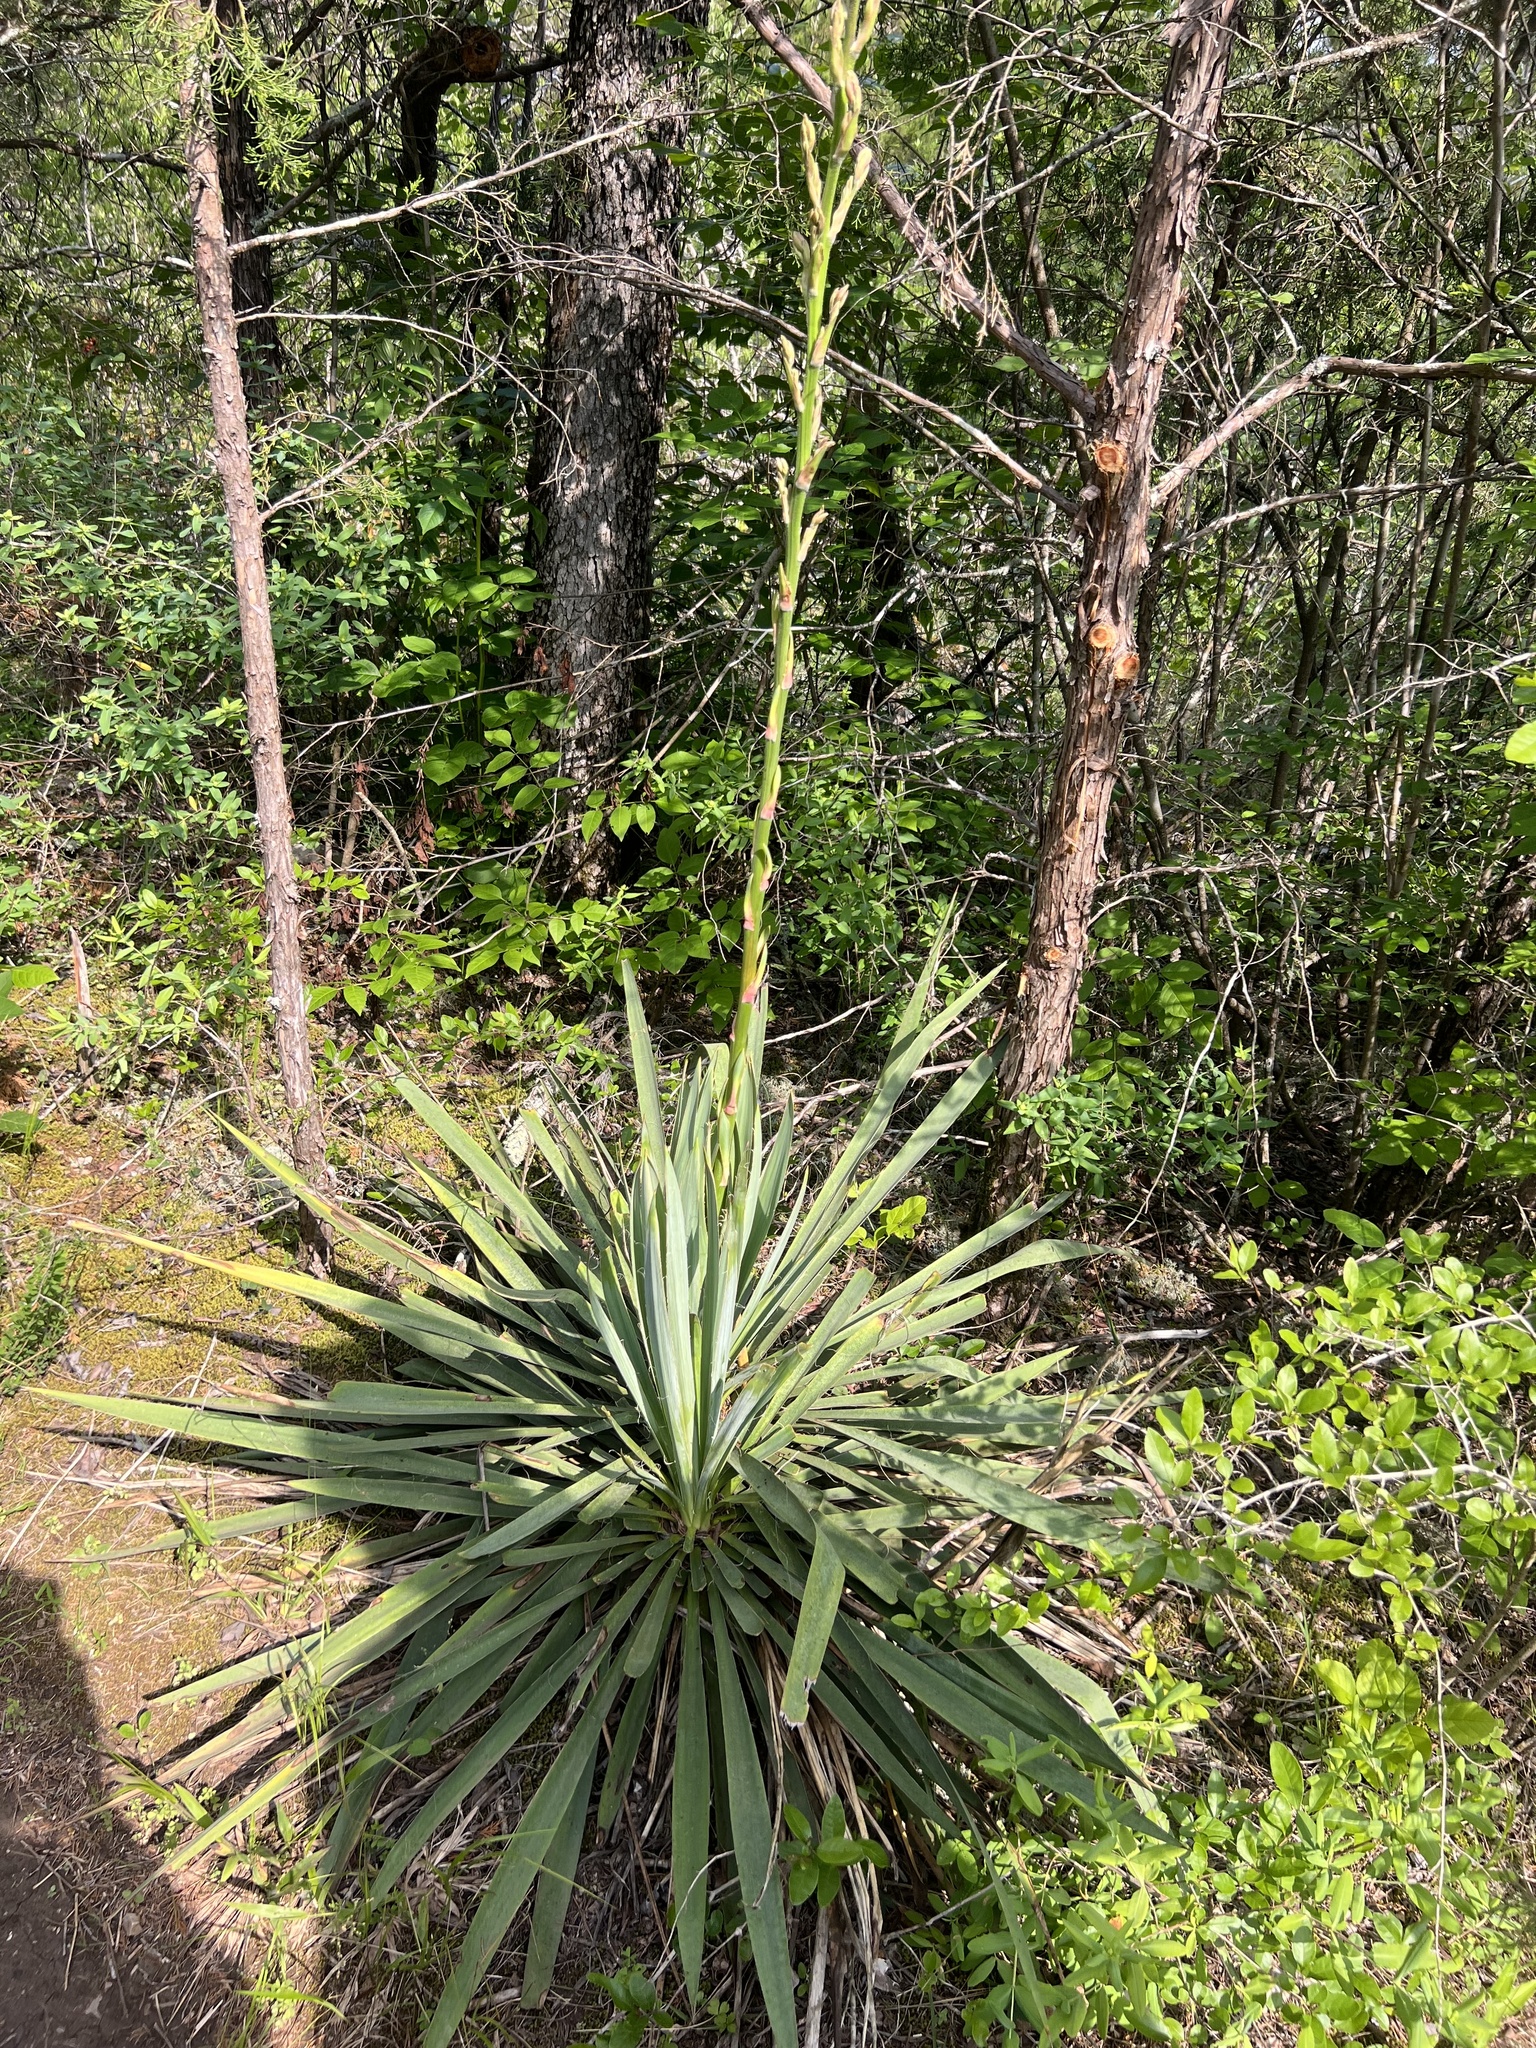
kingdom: Plantae
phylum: Tracheophyta
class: Liliopsida
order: Asparagales
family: Asparagaceae
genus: Yucca
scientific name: Yucca filamentosa
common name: Adam's-needle
